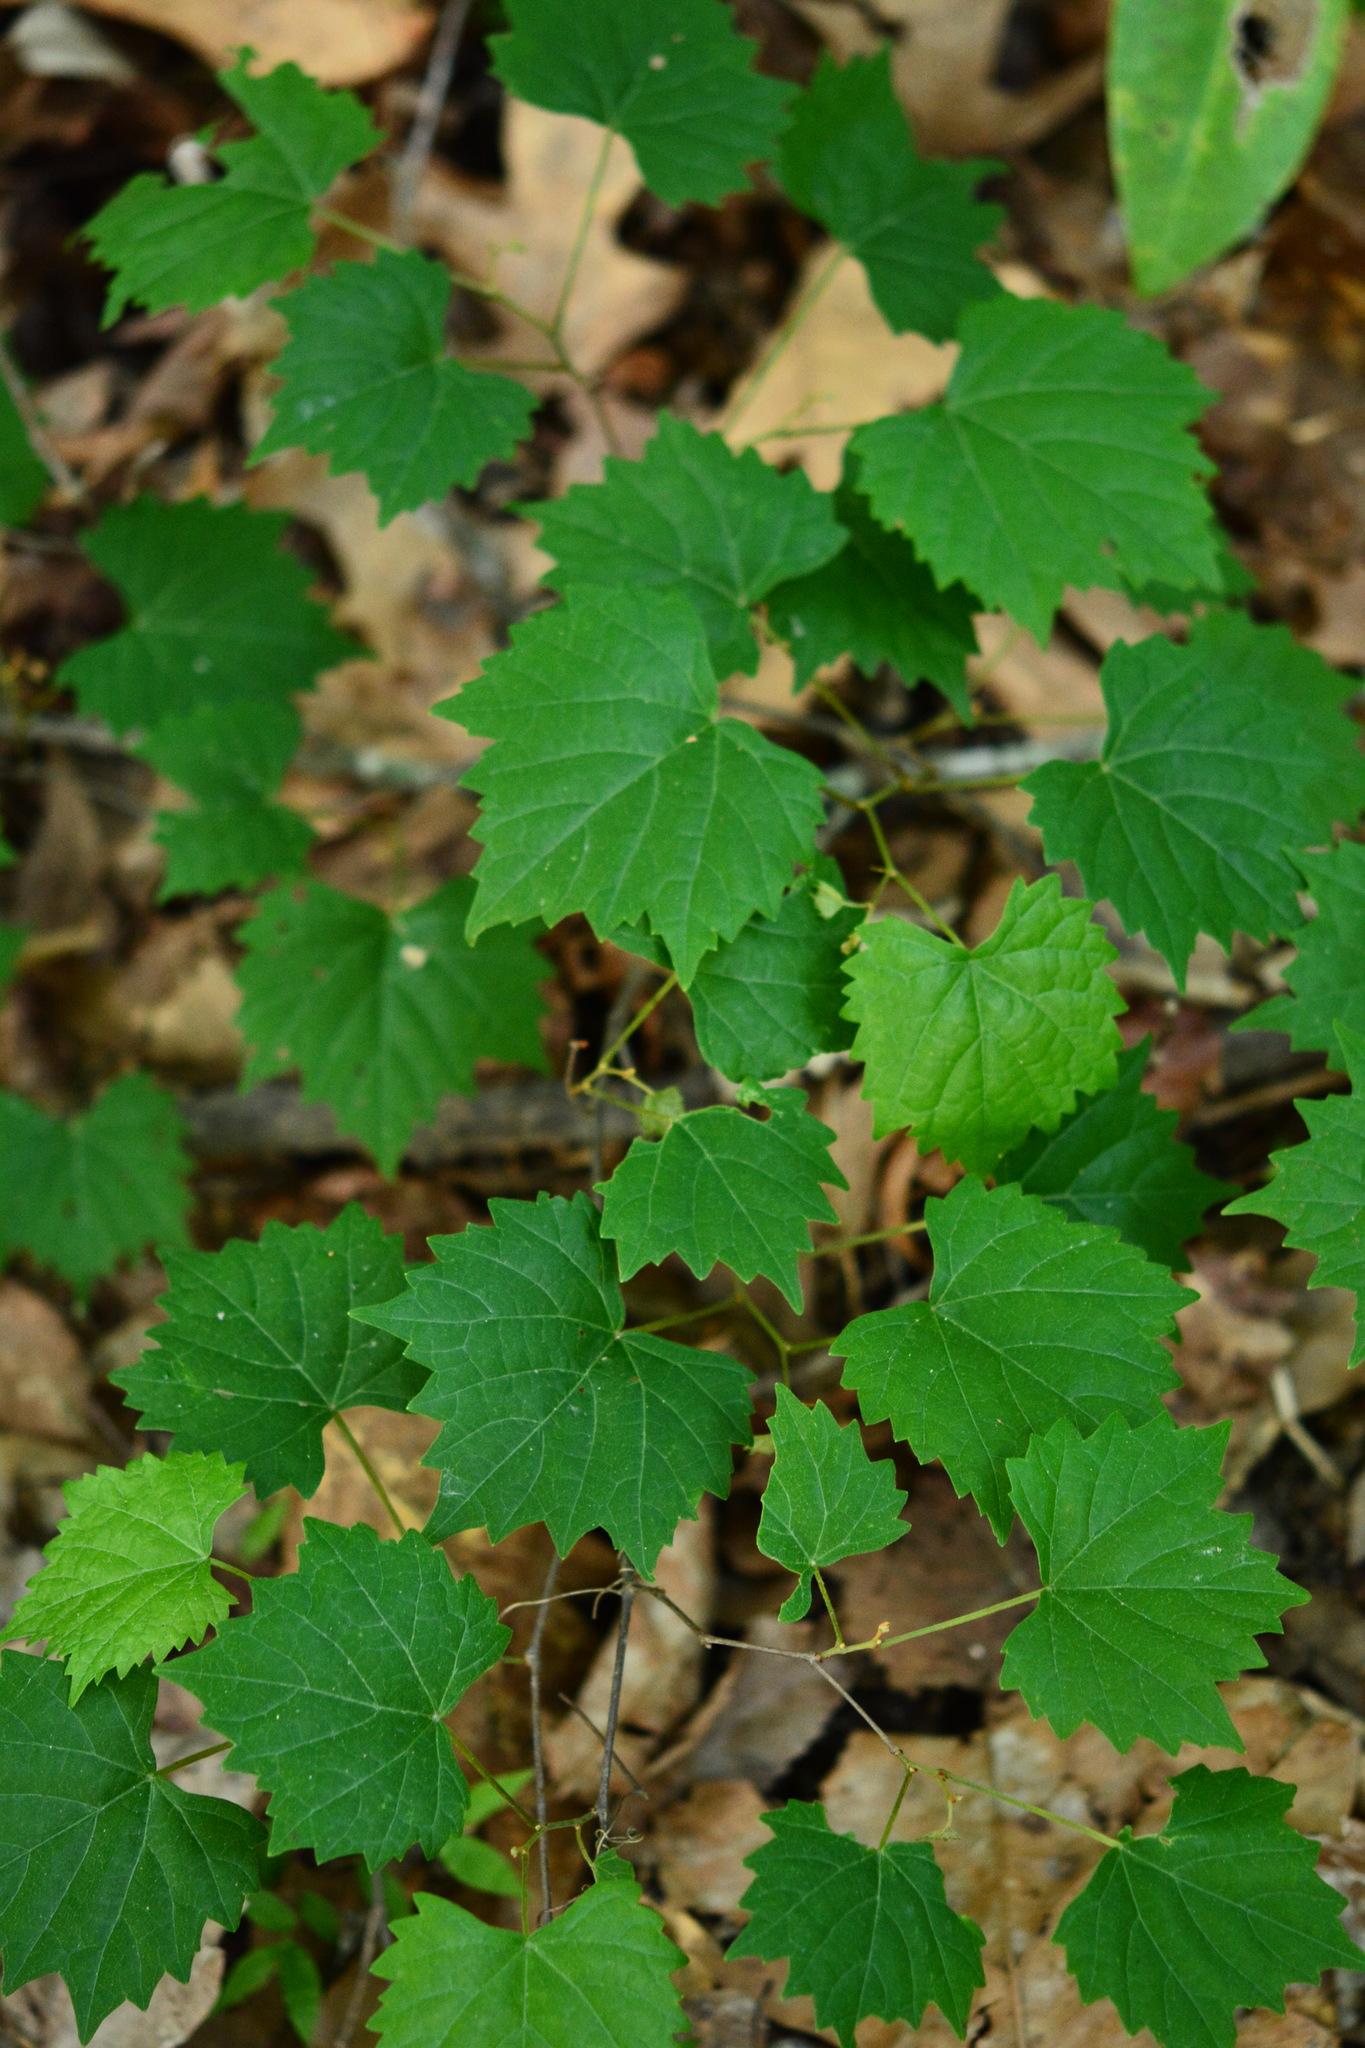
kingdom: Plantae
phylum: Tracheophyta
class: Magnoliopsida
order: Vitales
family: Vitaceae
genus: Vitis
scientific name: Vitis rotundifolia
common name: Muscadine grape
